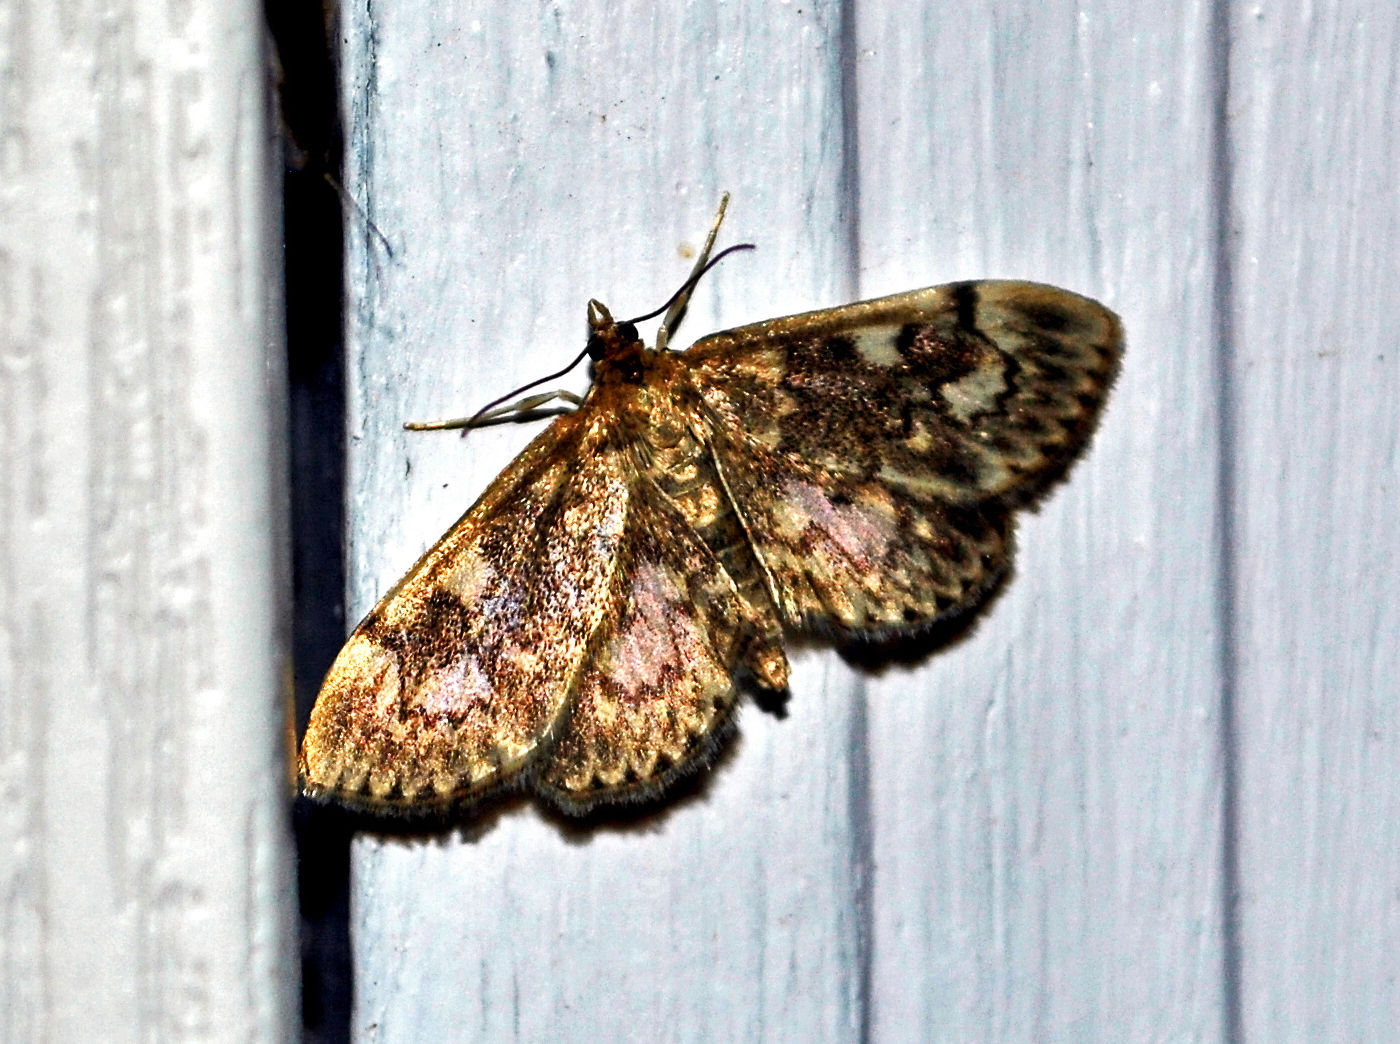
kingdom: Animalia
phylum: Arthropoda
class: Insecta
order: Lepidoptera
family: Crambidae
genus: Anania
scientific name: Anania
